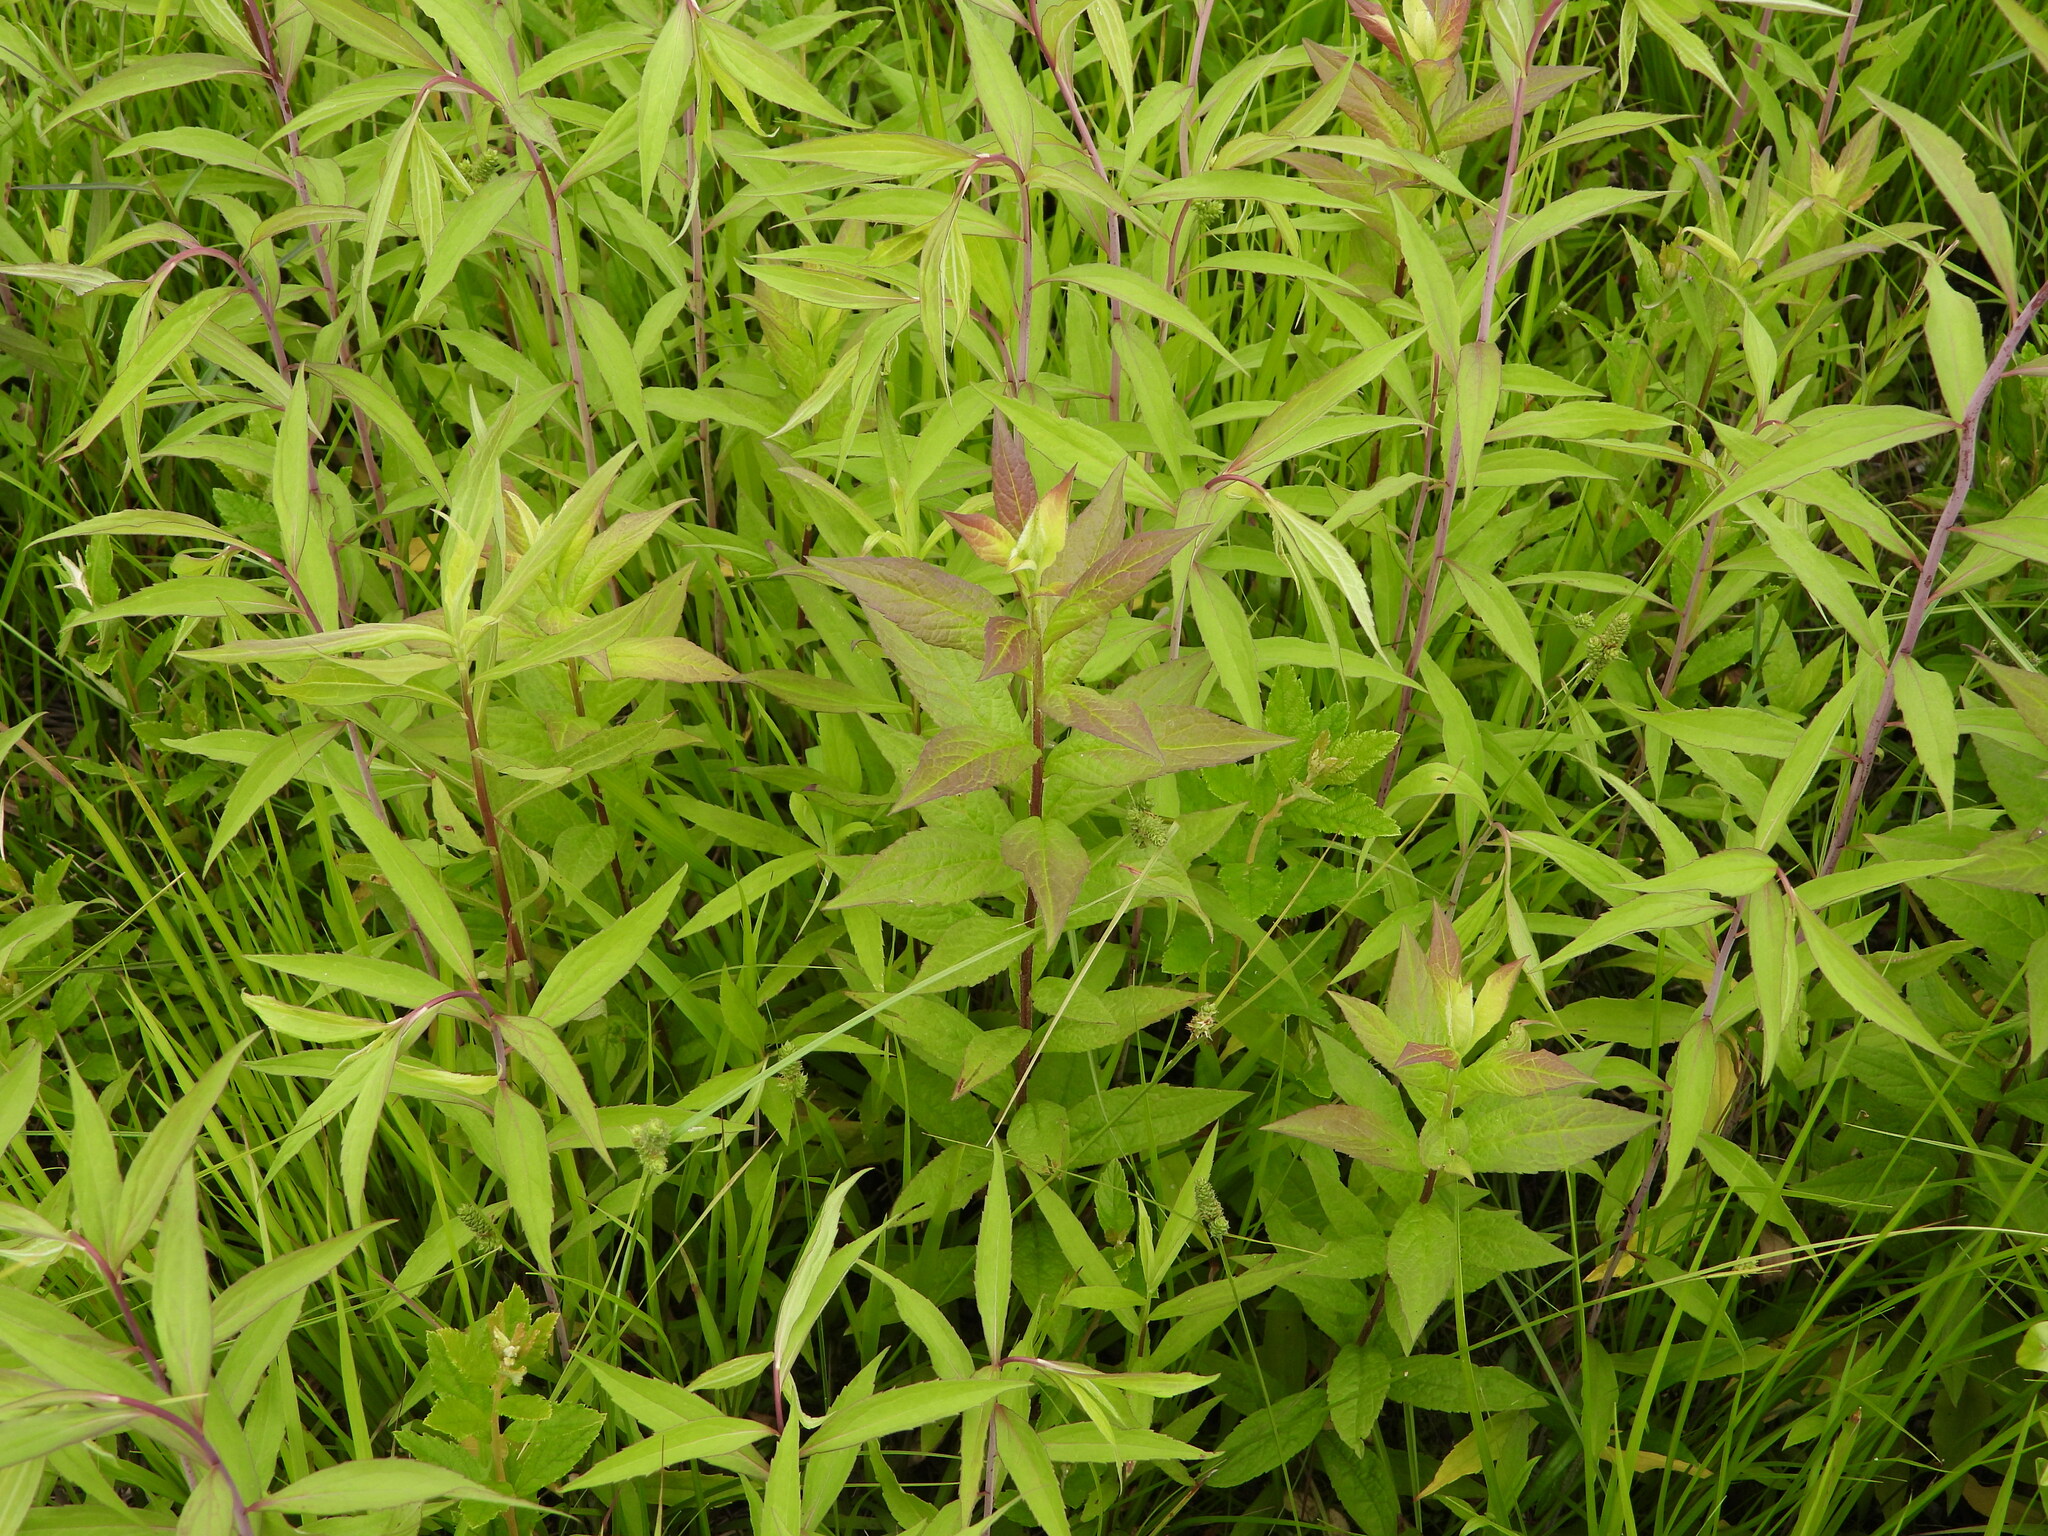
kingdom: Plantae
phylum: Tracheophyta
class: Magnoliopsida
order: Asterales
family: Asteraceae
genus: Solidago
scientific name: Solidago rugosa
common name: Rough-stemmed goldenrod
